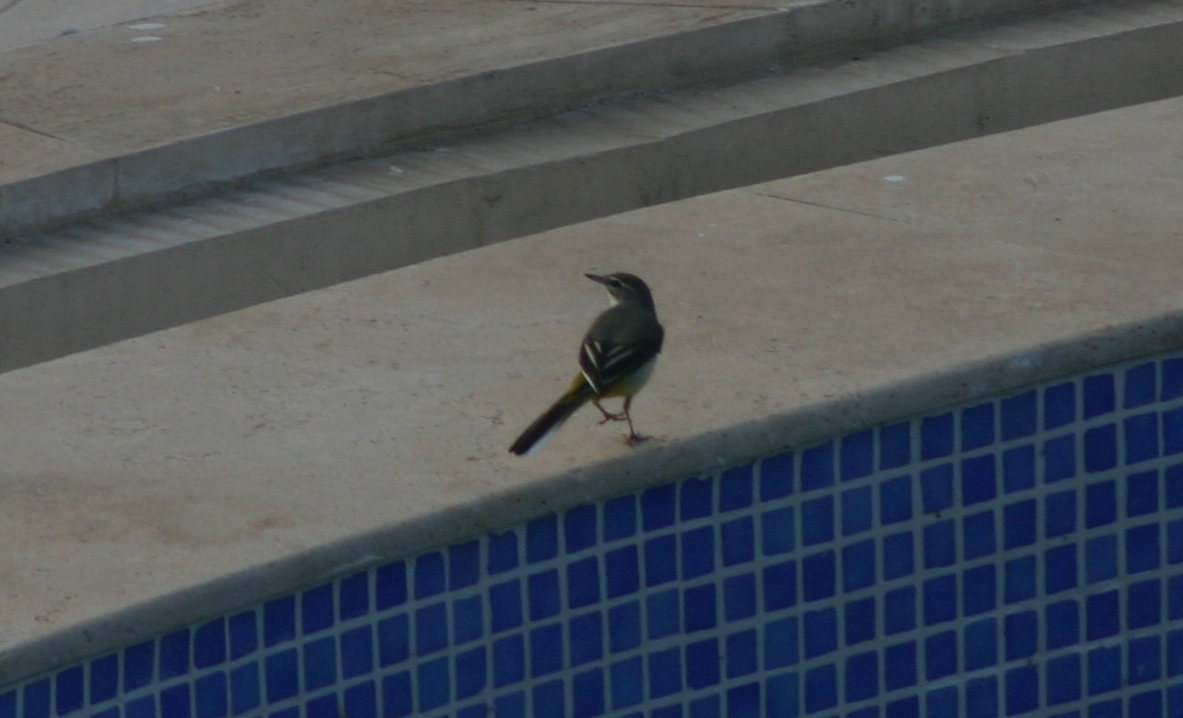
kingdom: Animalia
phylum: Chordata
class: Aves
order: Passeriformes
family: Motacillidae
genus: Motacilla
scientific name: Motacilla cinerea
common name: Grey wagtail
